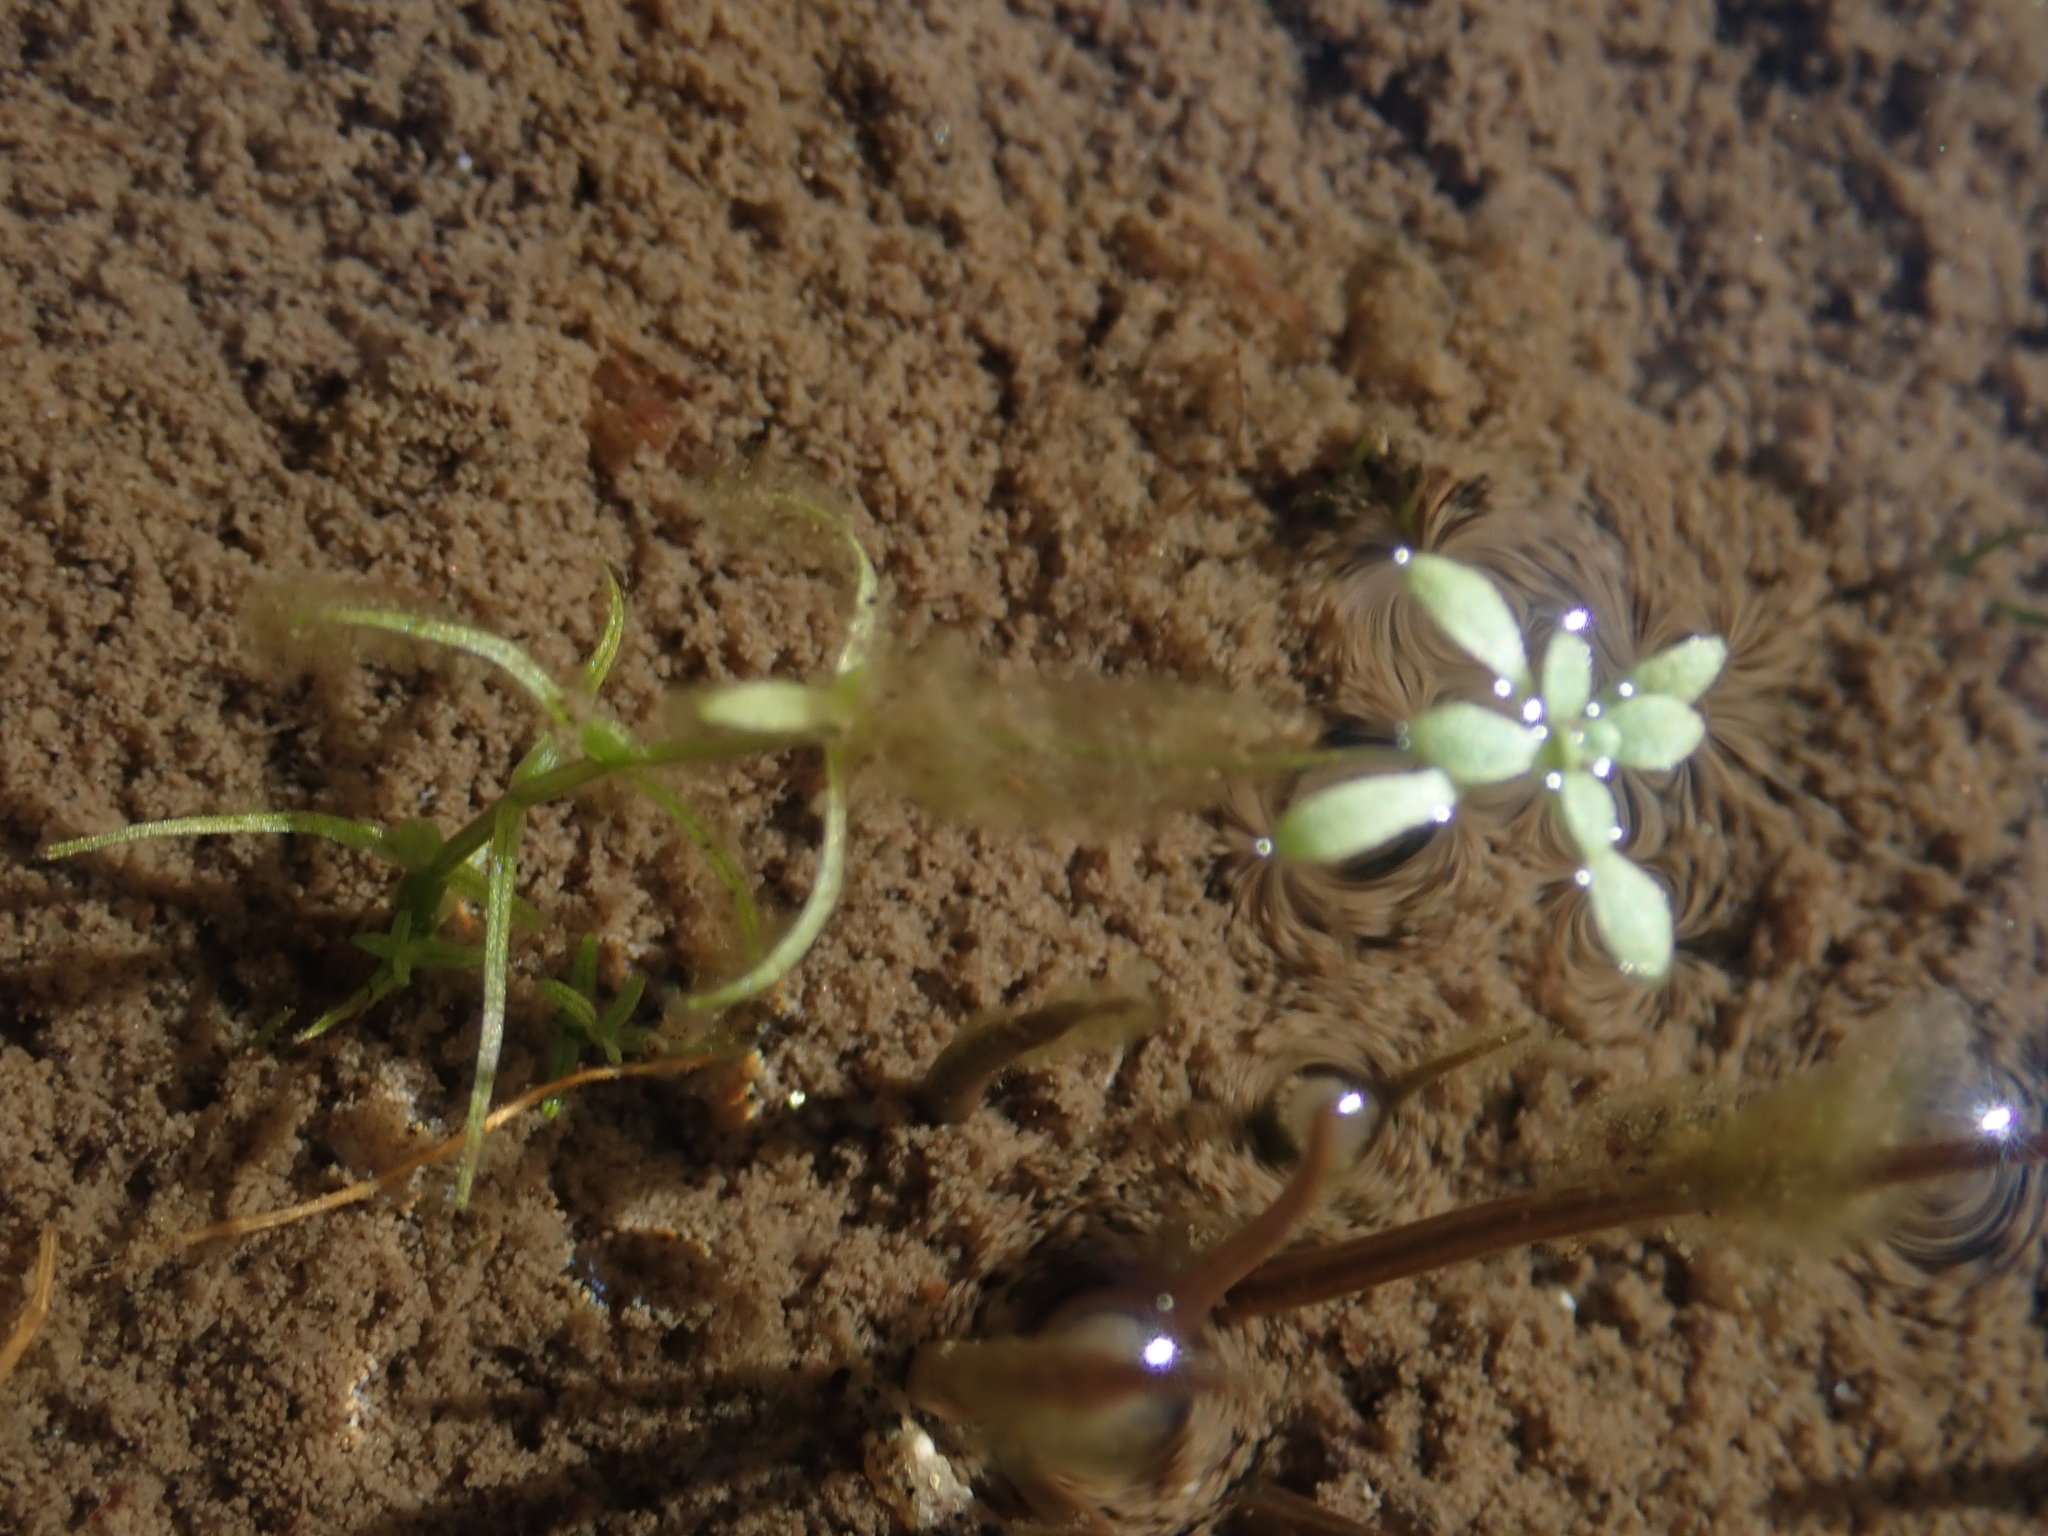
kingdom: Plantae
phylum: Tracheophyta
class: Magnoliopsida
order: Lamiales
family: Plantaginaceae
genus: Callitriche
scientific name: Callitriche palustris
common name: Spring water-starwort
